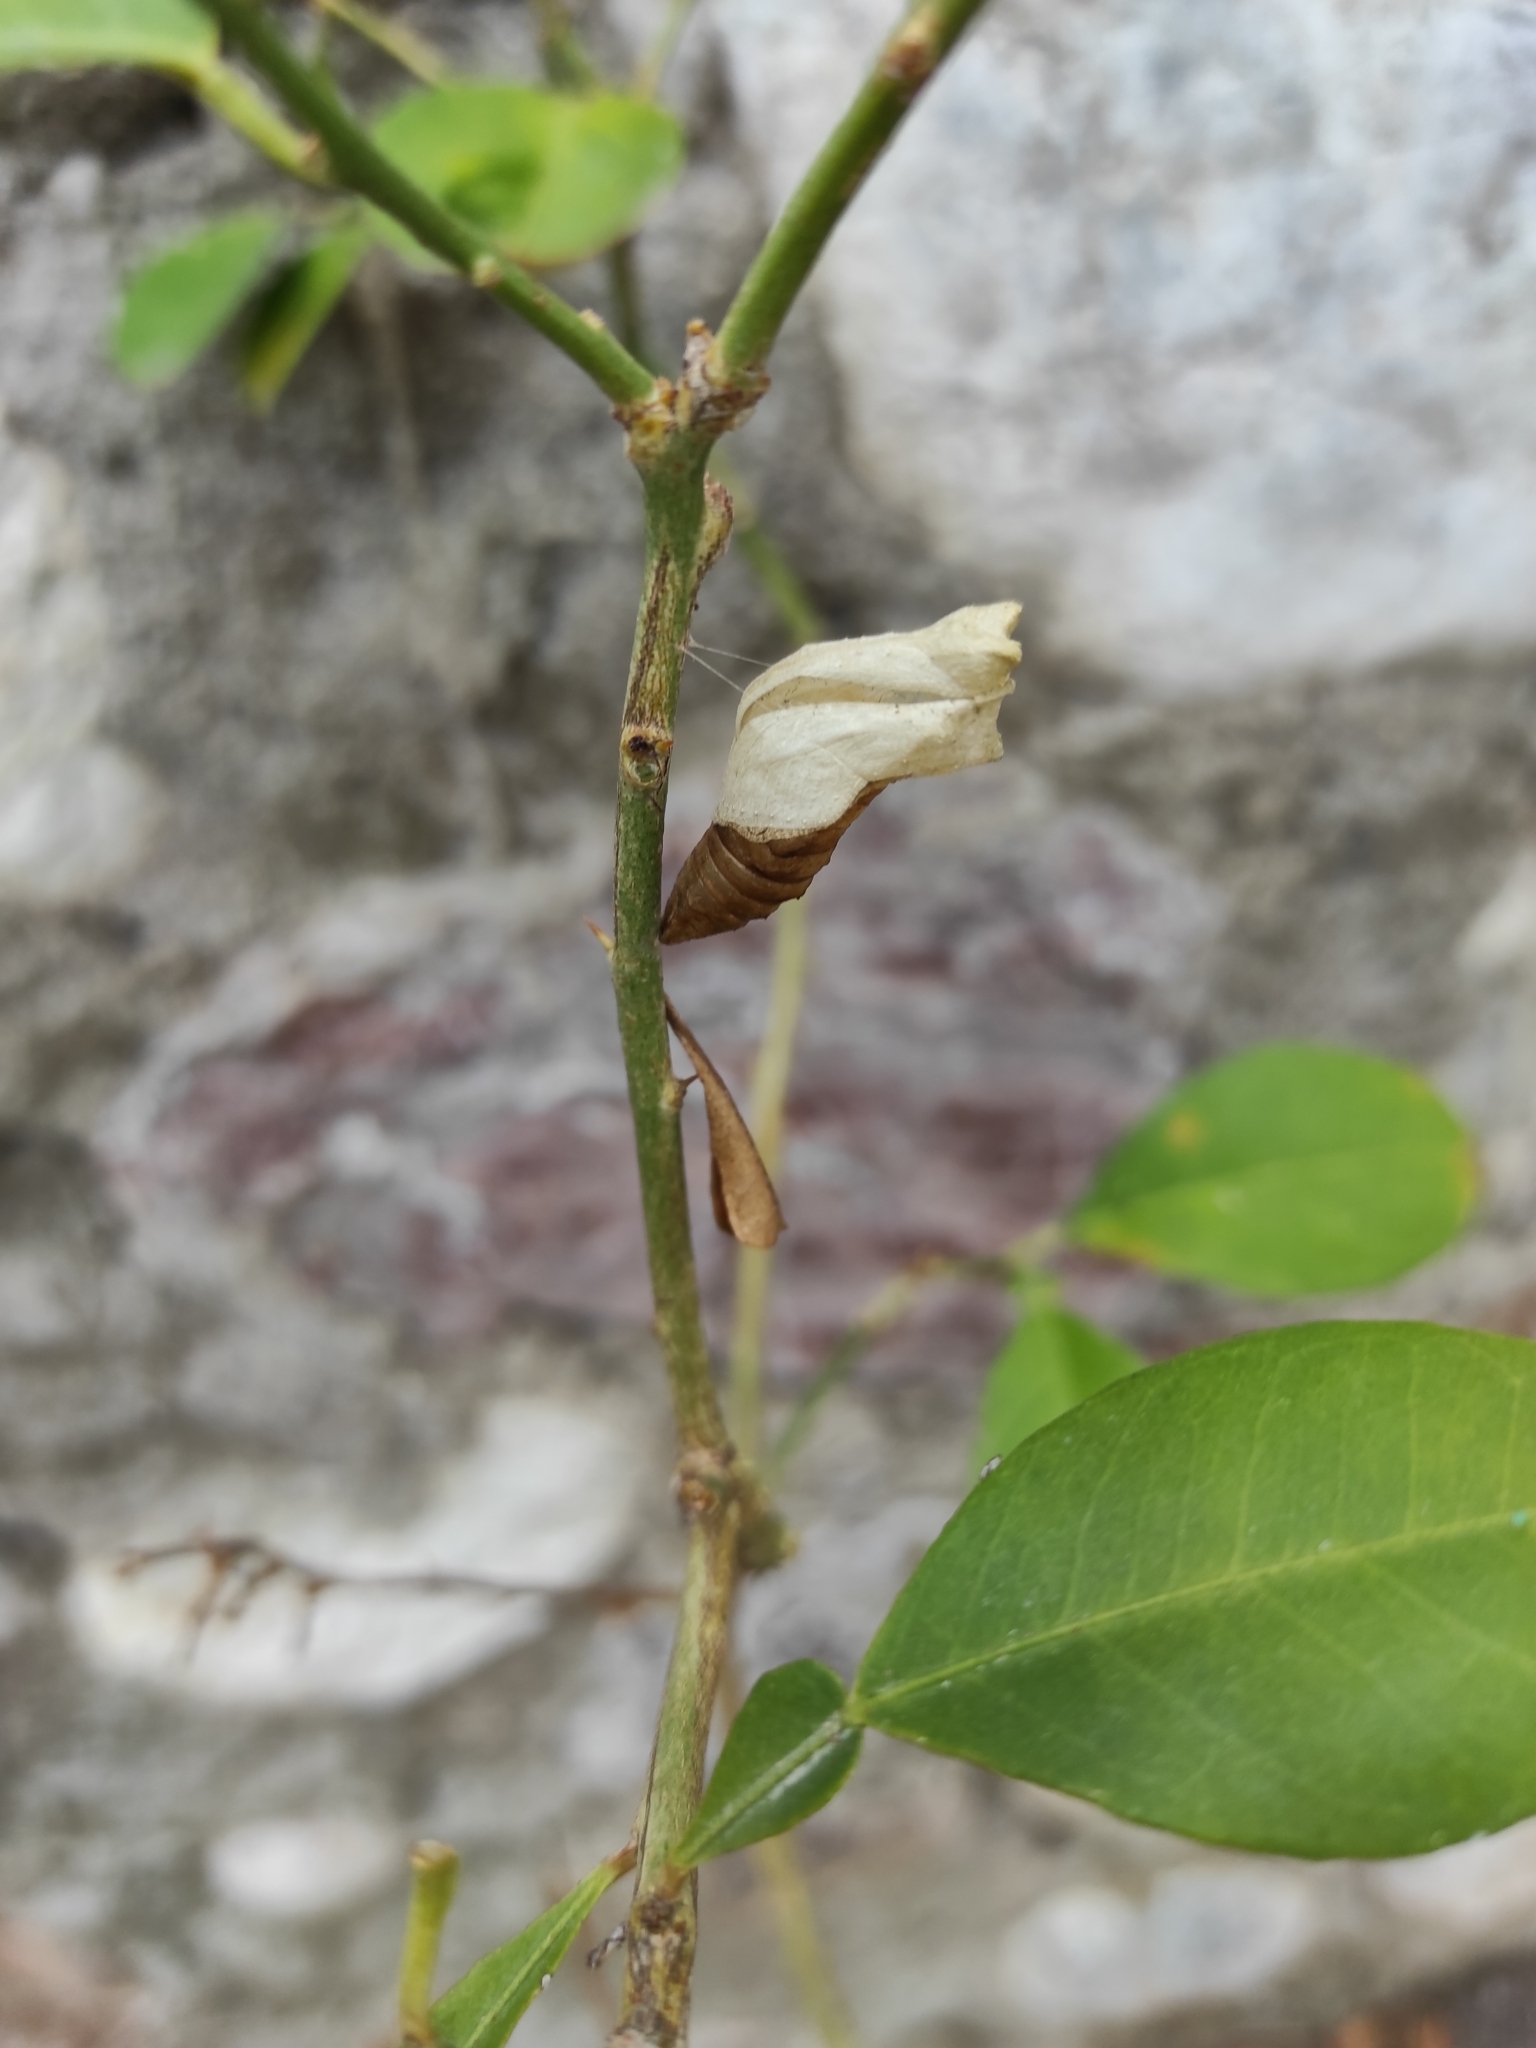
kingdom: Animalia
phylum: Arthropoda
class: Insecta
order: Lepidoptera
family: Papilionidae
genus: Papilio
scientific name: Papilio demoleus
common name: Lime butterfly
